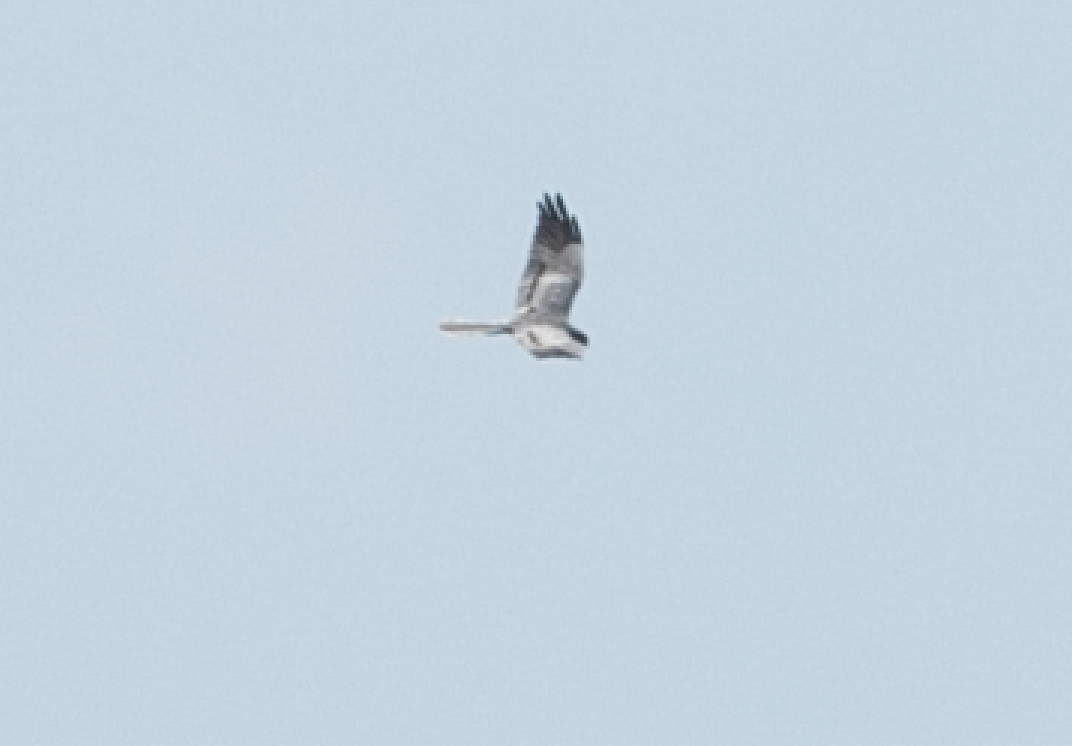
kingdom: Animalia
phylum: Chordata
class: Aves
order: Accipitriformes
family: Accipitridae
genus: Circus
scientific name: Circus pygargus
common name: Montagu's harrier
